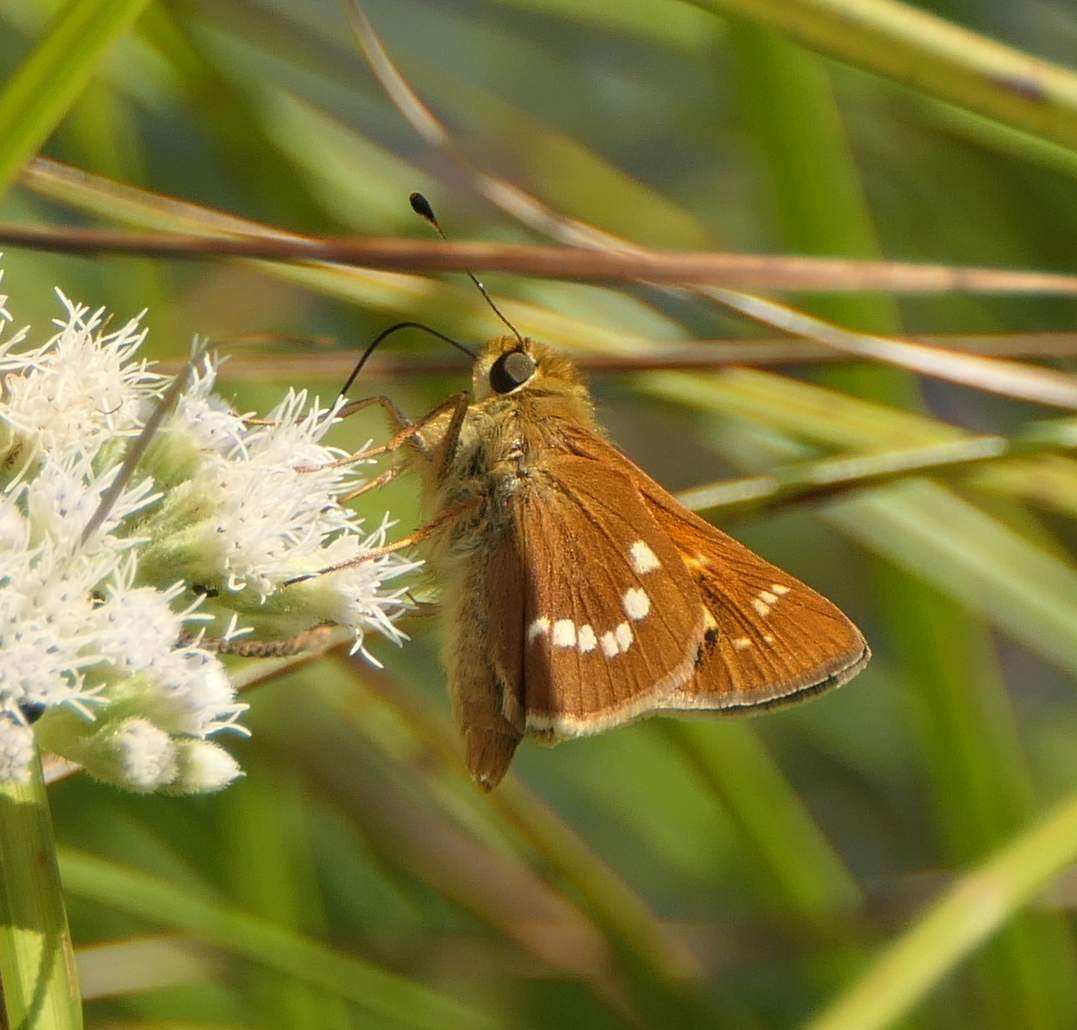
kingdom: Animalia
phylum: Arthropoda
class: Insecta
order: Lepidoptera
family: Hesperiidae
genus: Hesperia
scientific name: Hesperia leonardus
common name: Leonard's skipper
